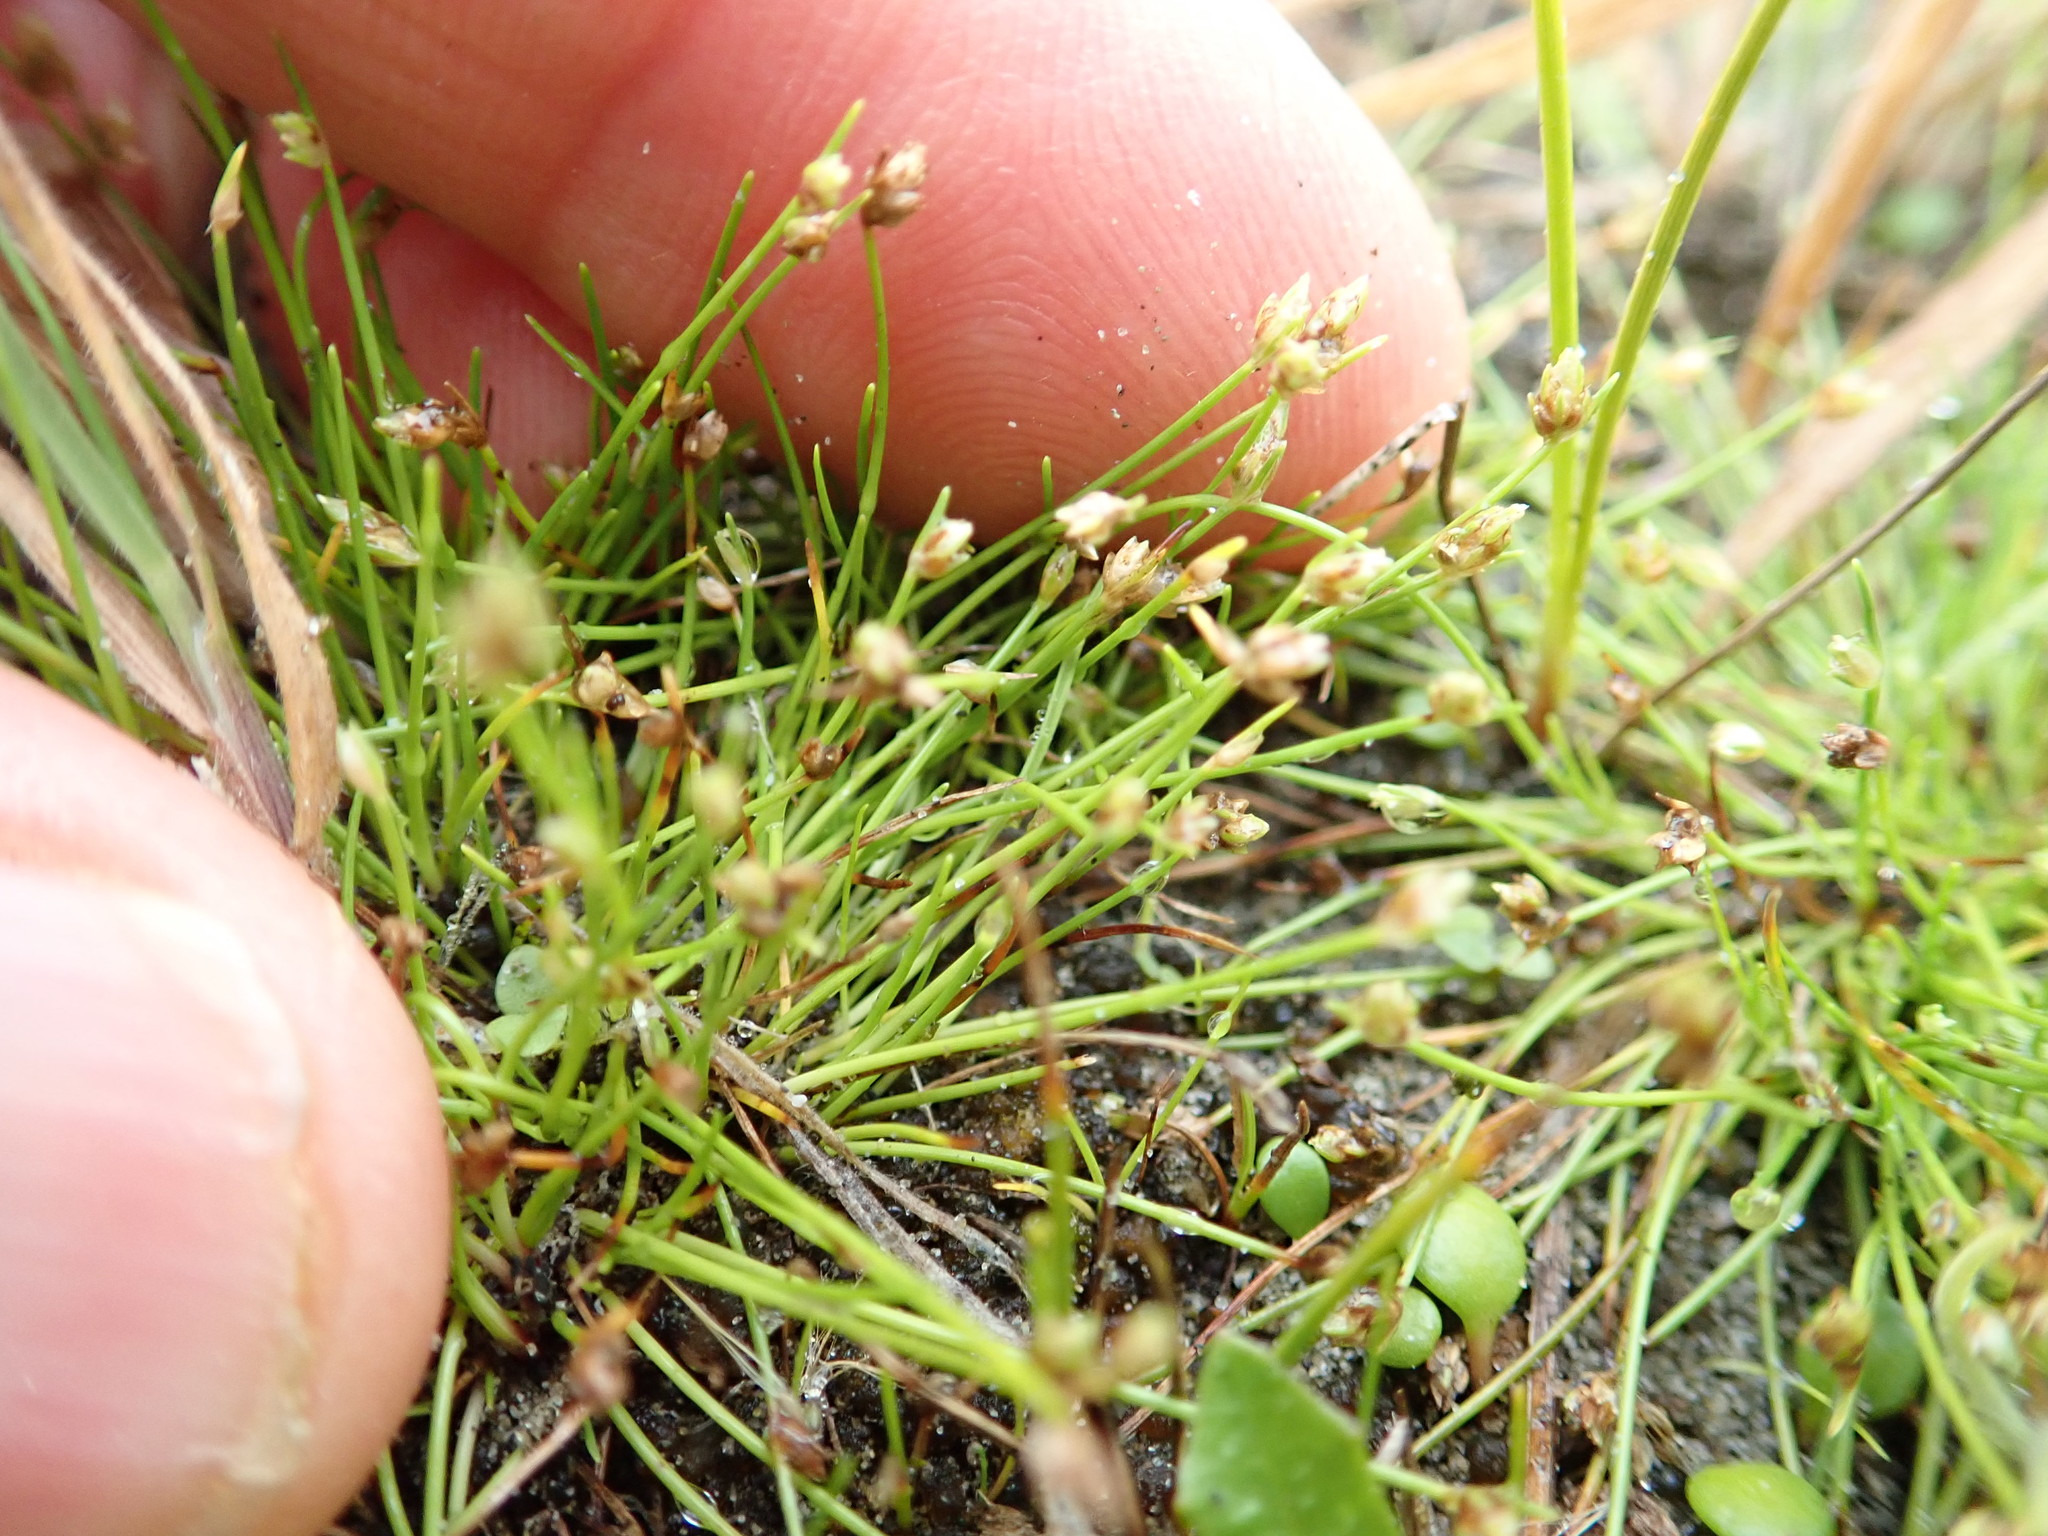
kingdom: Plantae
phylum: Tracheophyta
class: Liliopsida
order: Poales
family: Cyperaceae
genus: Isolepis
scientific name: Isolepis cernua
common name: Slender club-rush
